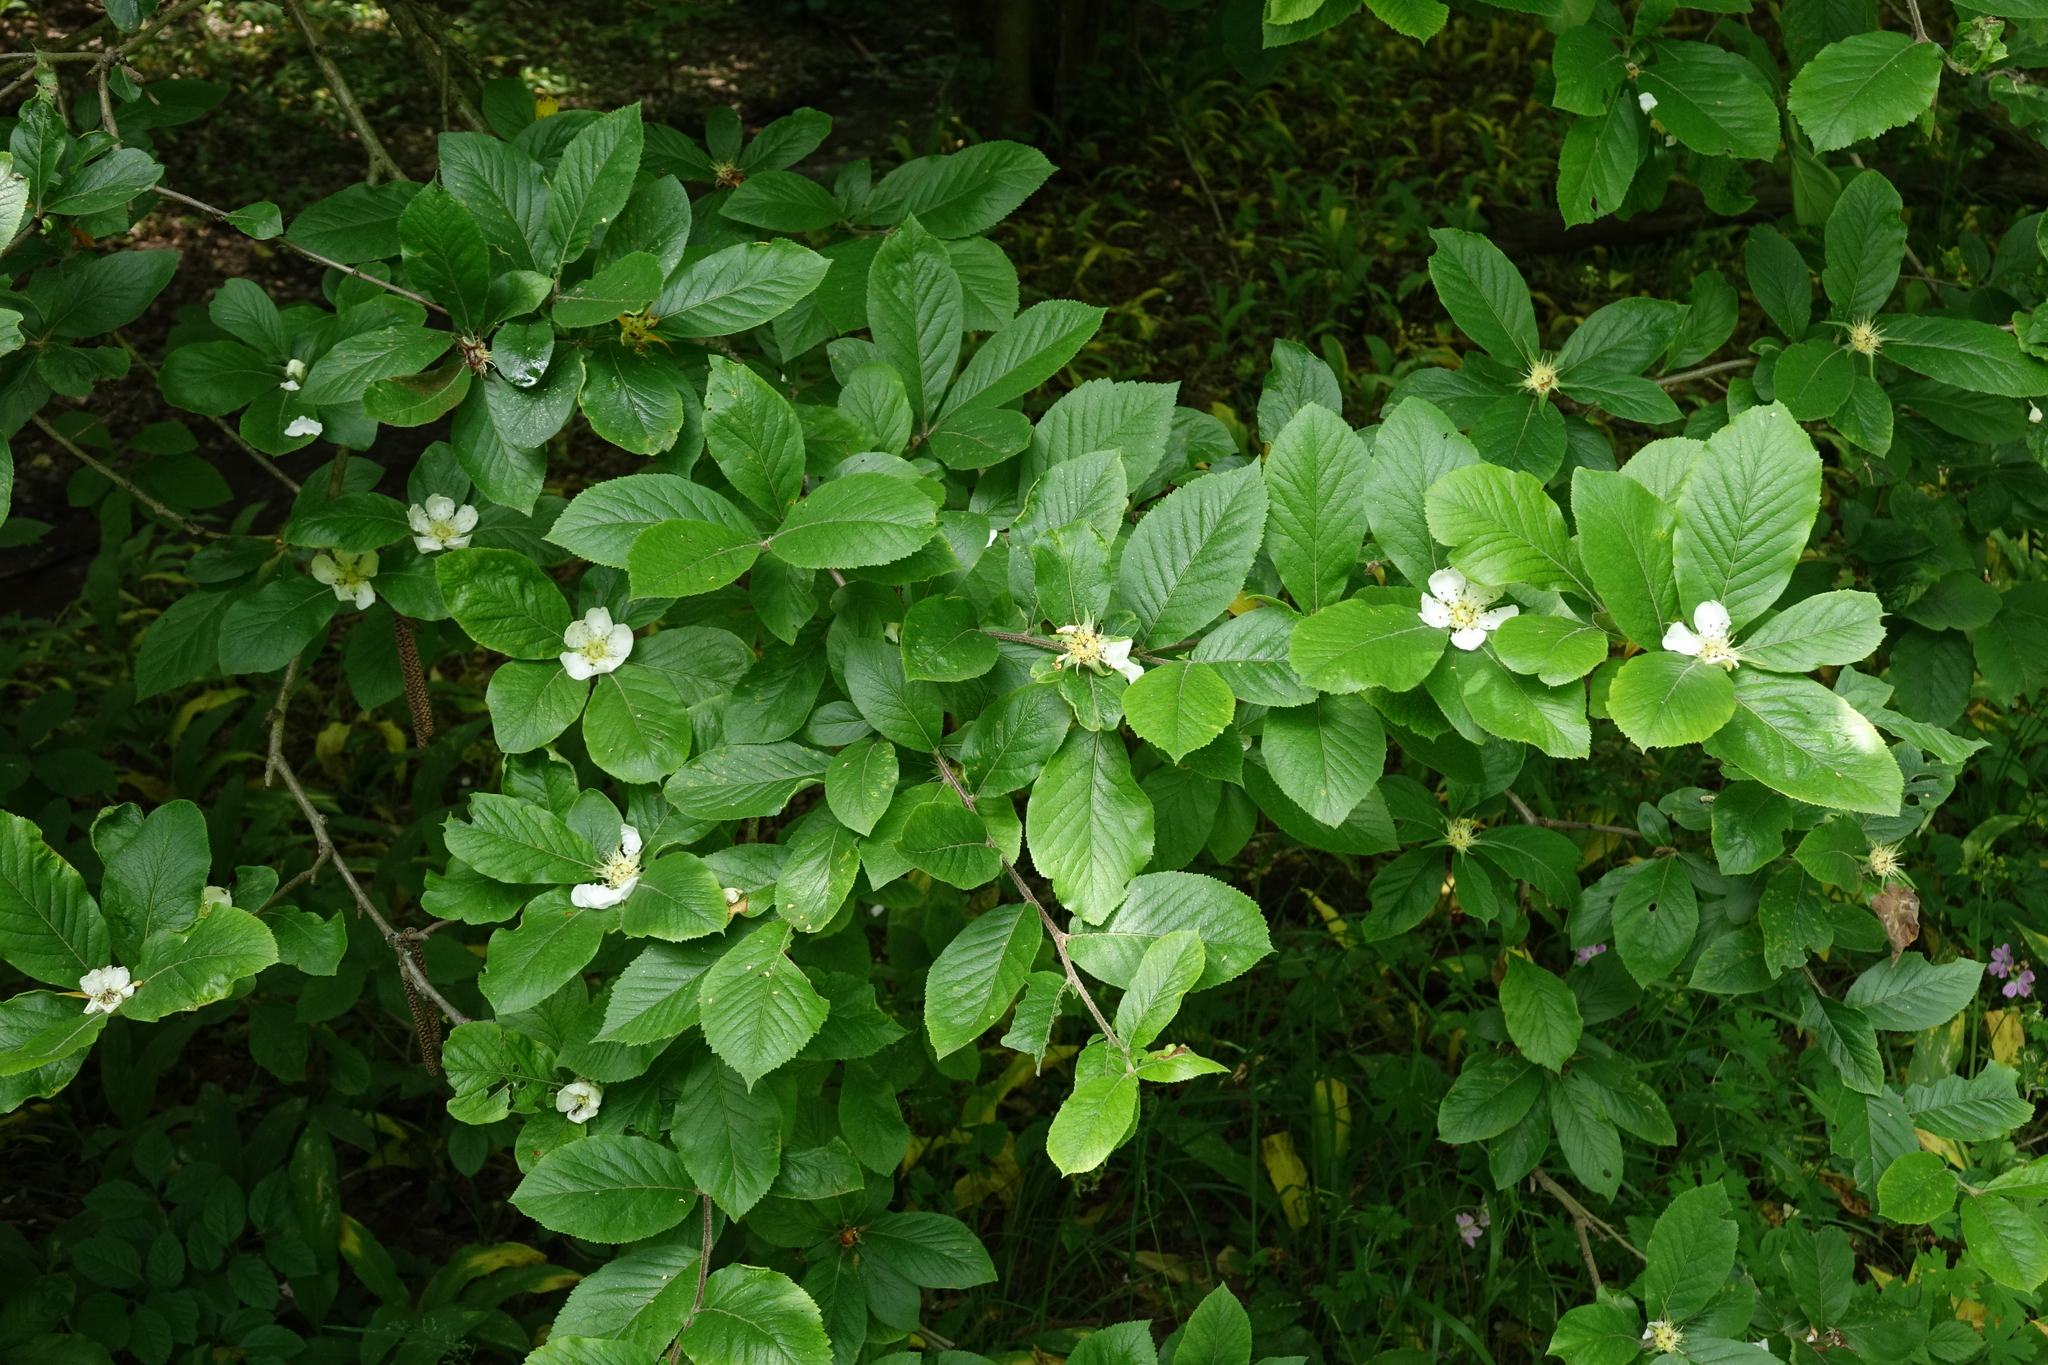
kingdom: Plantae
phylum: Tracheophyta
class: Magnoliopsida
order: Rosales
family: Rosaceae
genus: Mespilus
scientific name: Mespilus germanica
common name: Medlar
